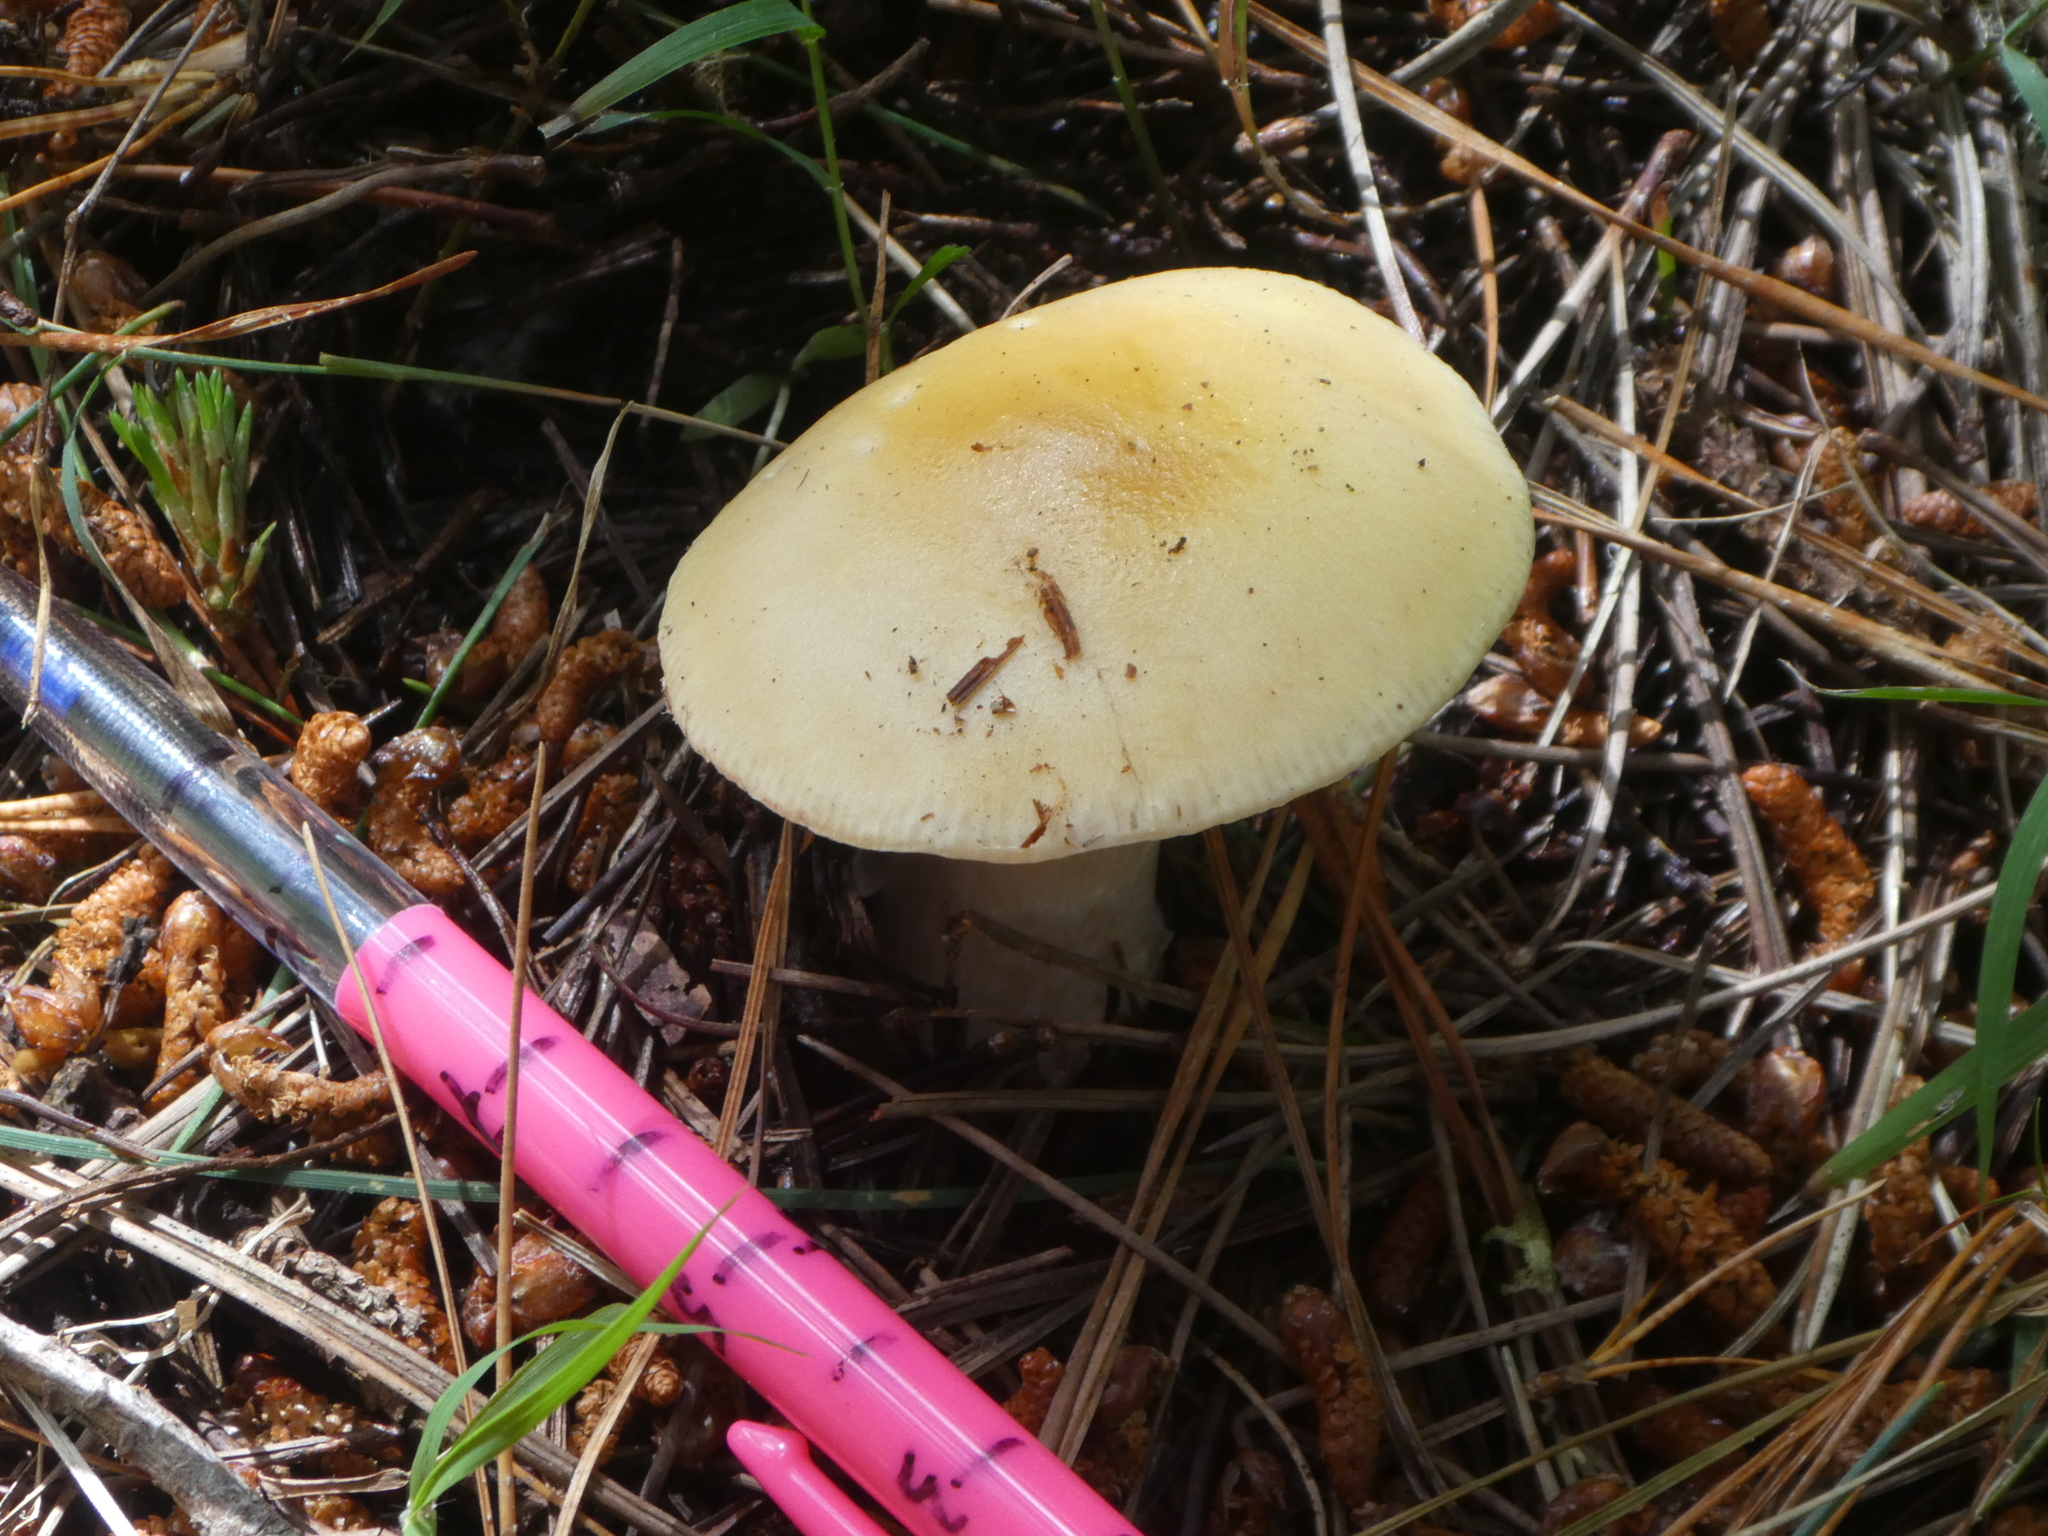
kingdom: Fungi
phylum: Basidiomycota
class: Agaricomycetes
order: Agaricales
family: Amanitaceae
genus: Amanita
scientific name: Amanita gemmata
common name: Jewelled amanita
